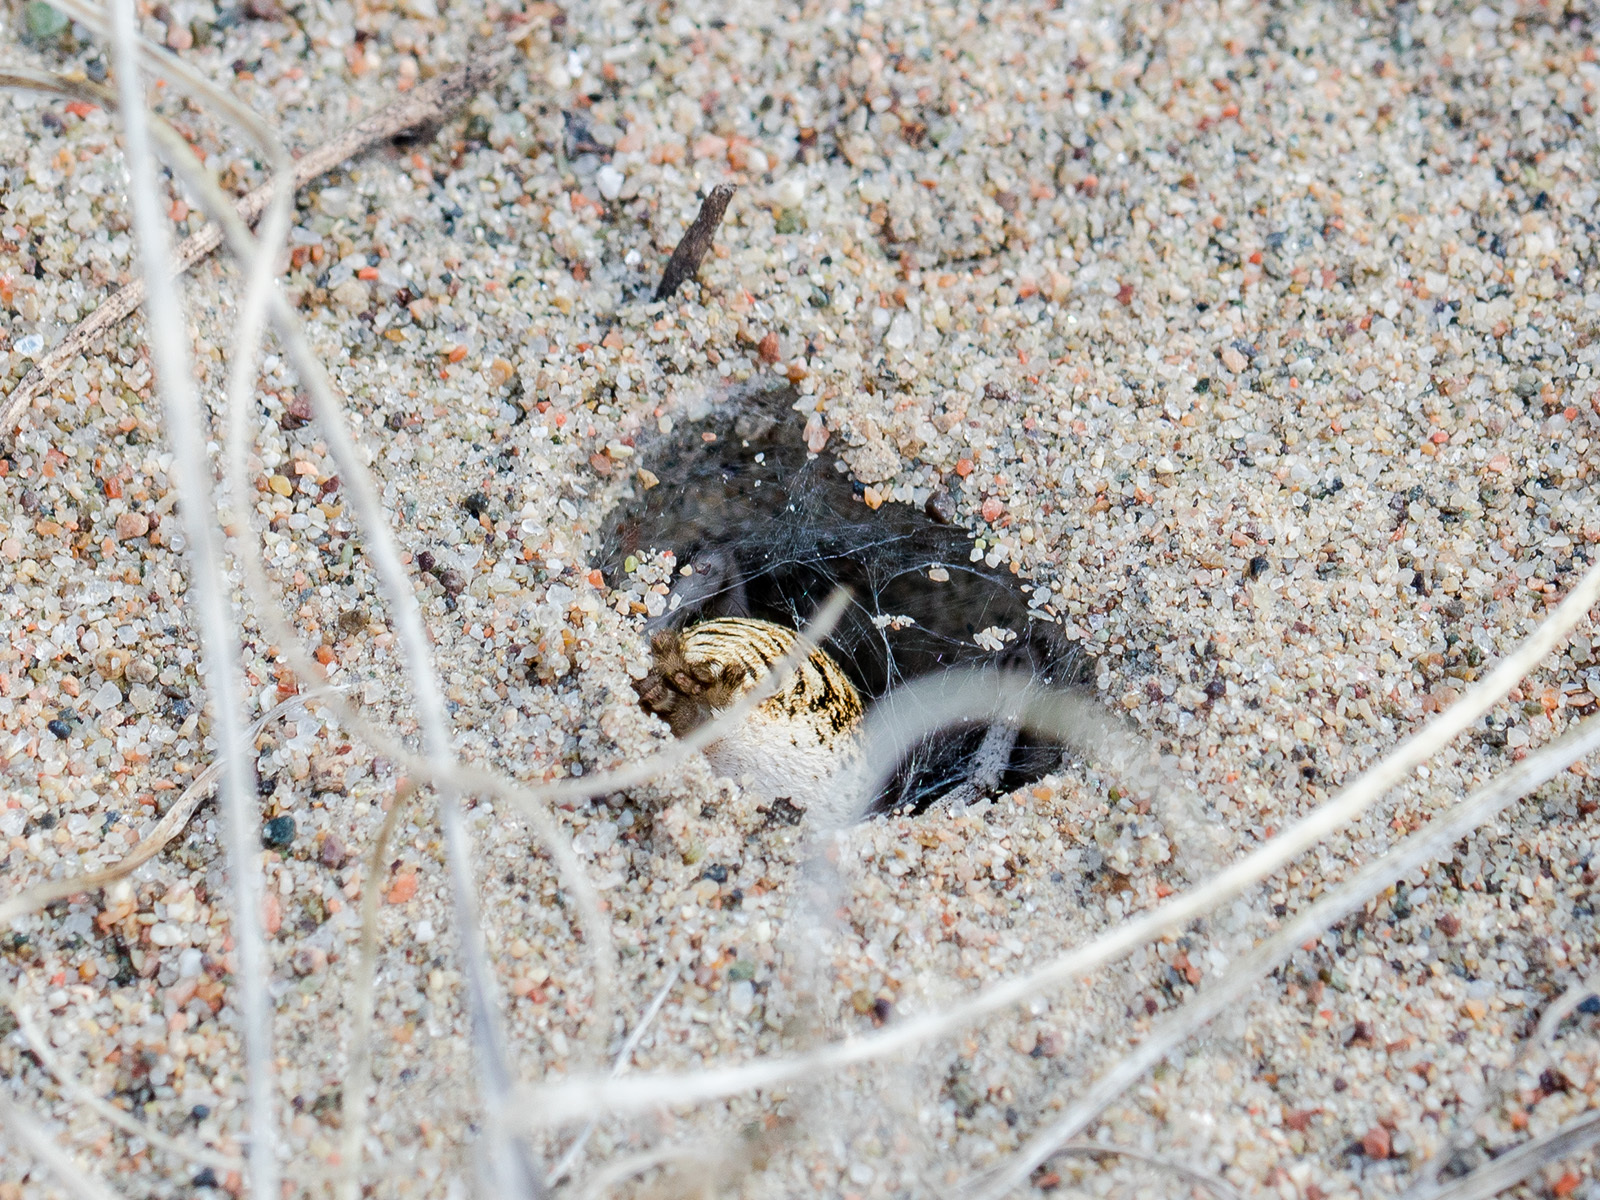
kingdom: Animalia
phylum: Arthropoda
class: Arachnida
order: Araneae
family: Lycosidae
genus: Karakumosa
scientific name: Karakumosa alticeps
